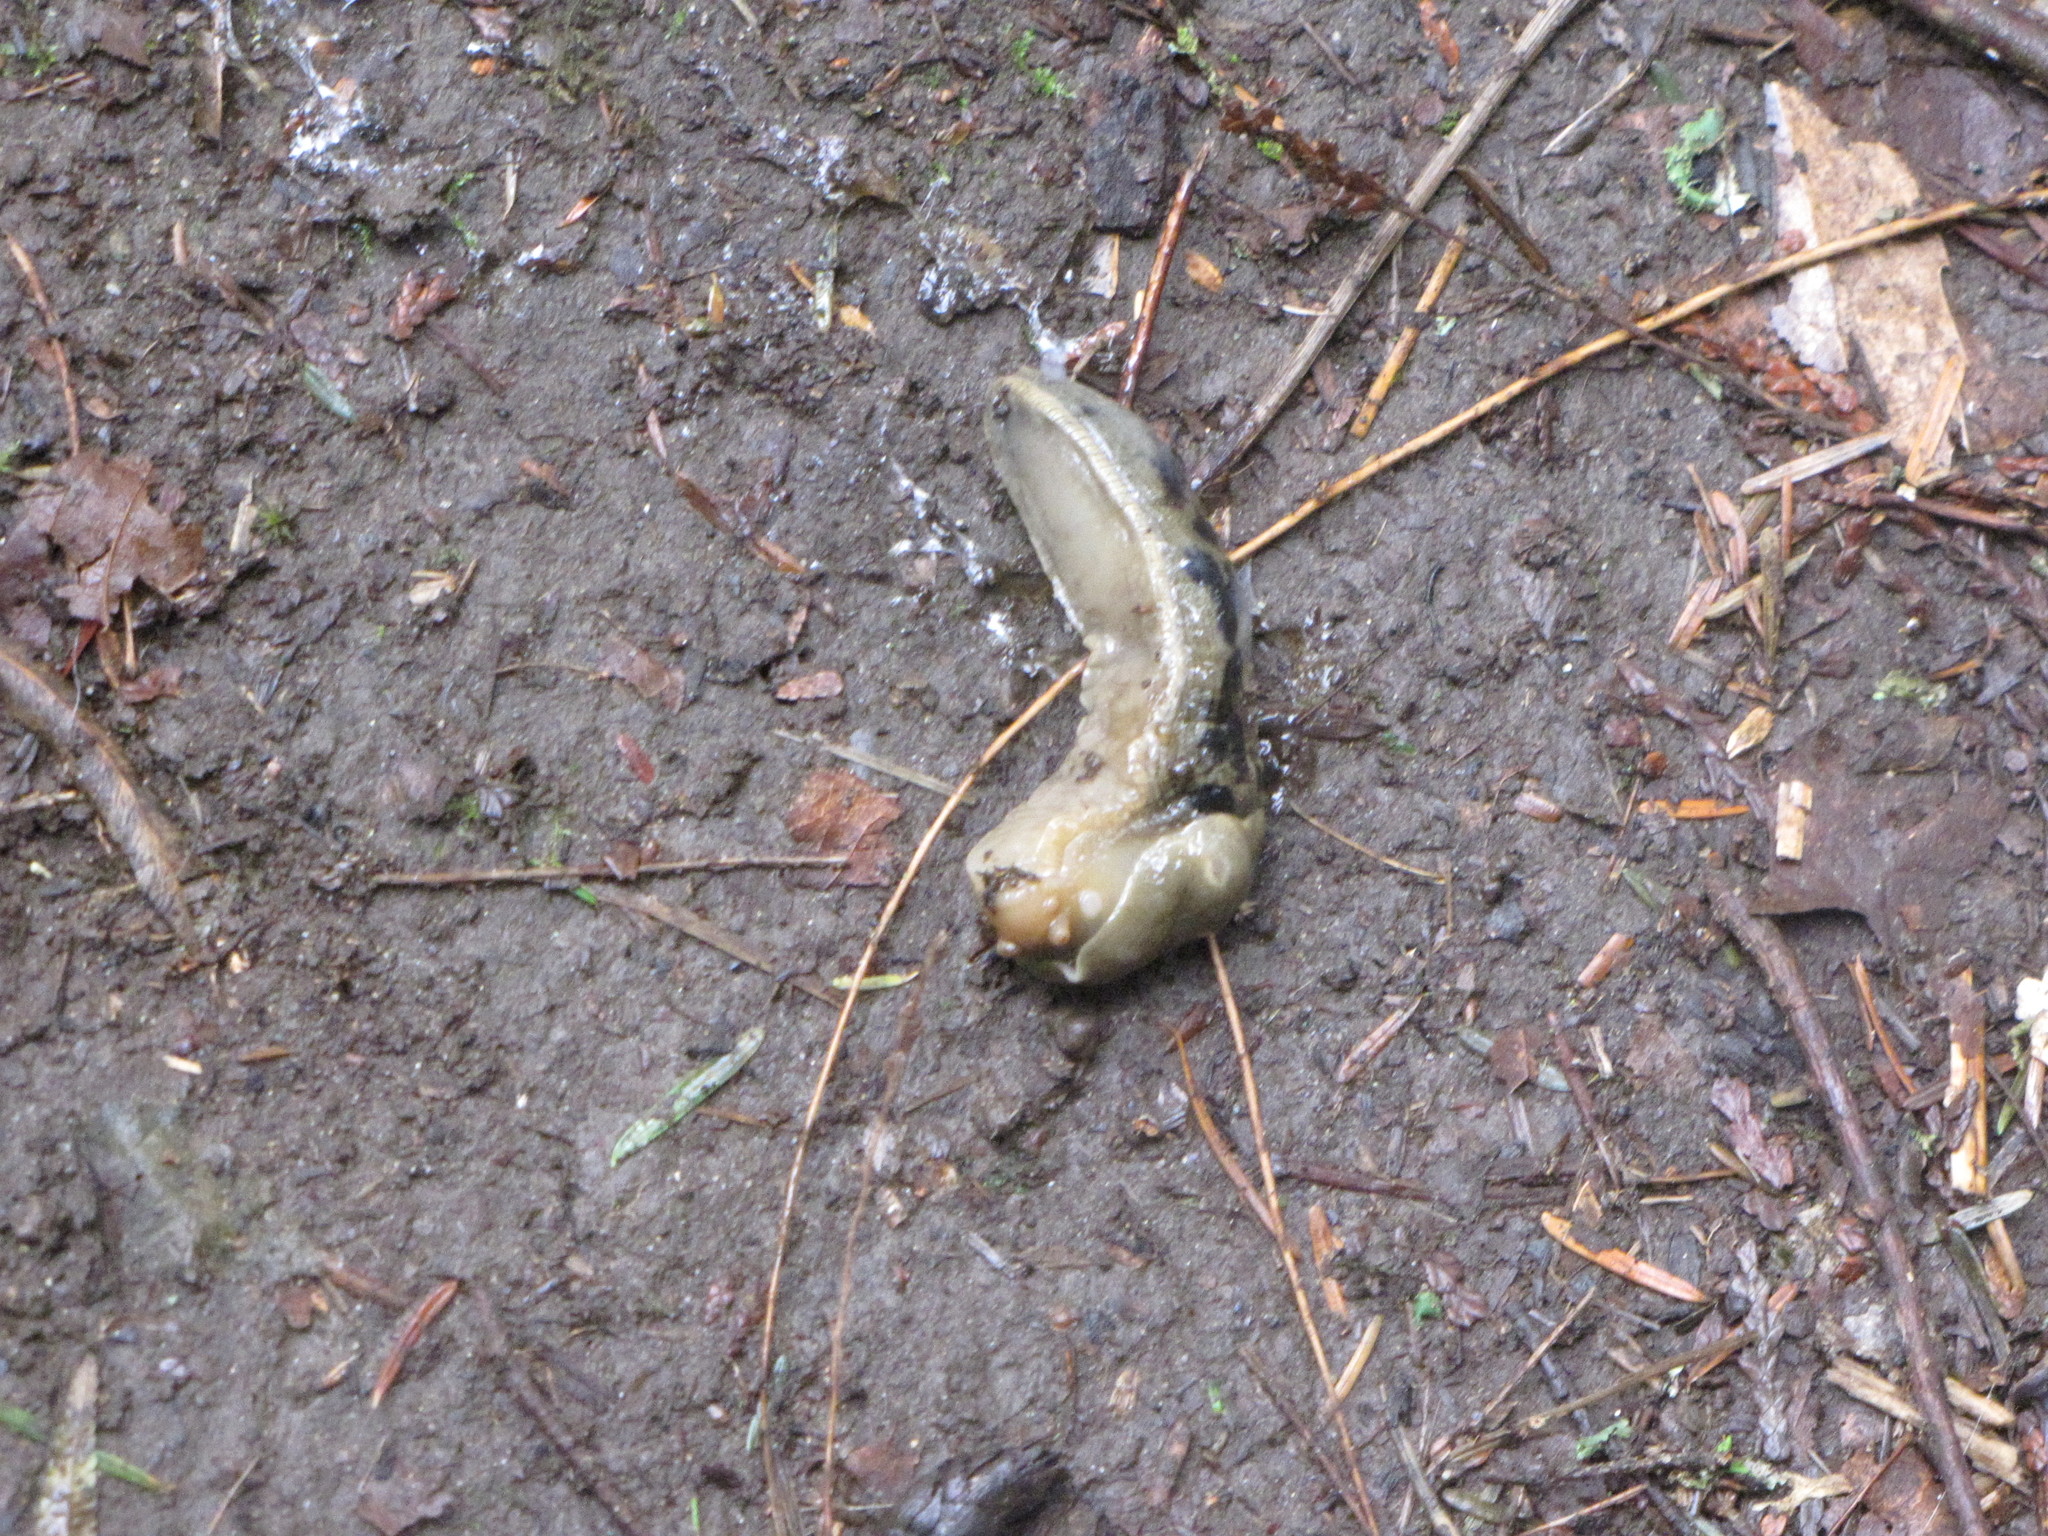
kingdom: Animalia
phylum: Mollusca
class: Gastropoda
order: Stylommatophora
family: Ariolimacidae
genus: Ariolimax
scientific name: Ariolimax columbianus
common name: Pacific banana slug
